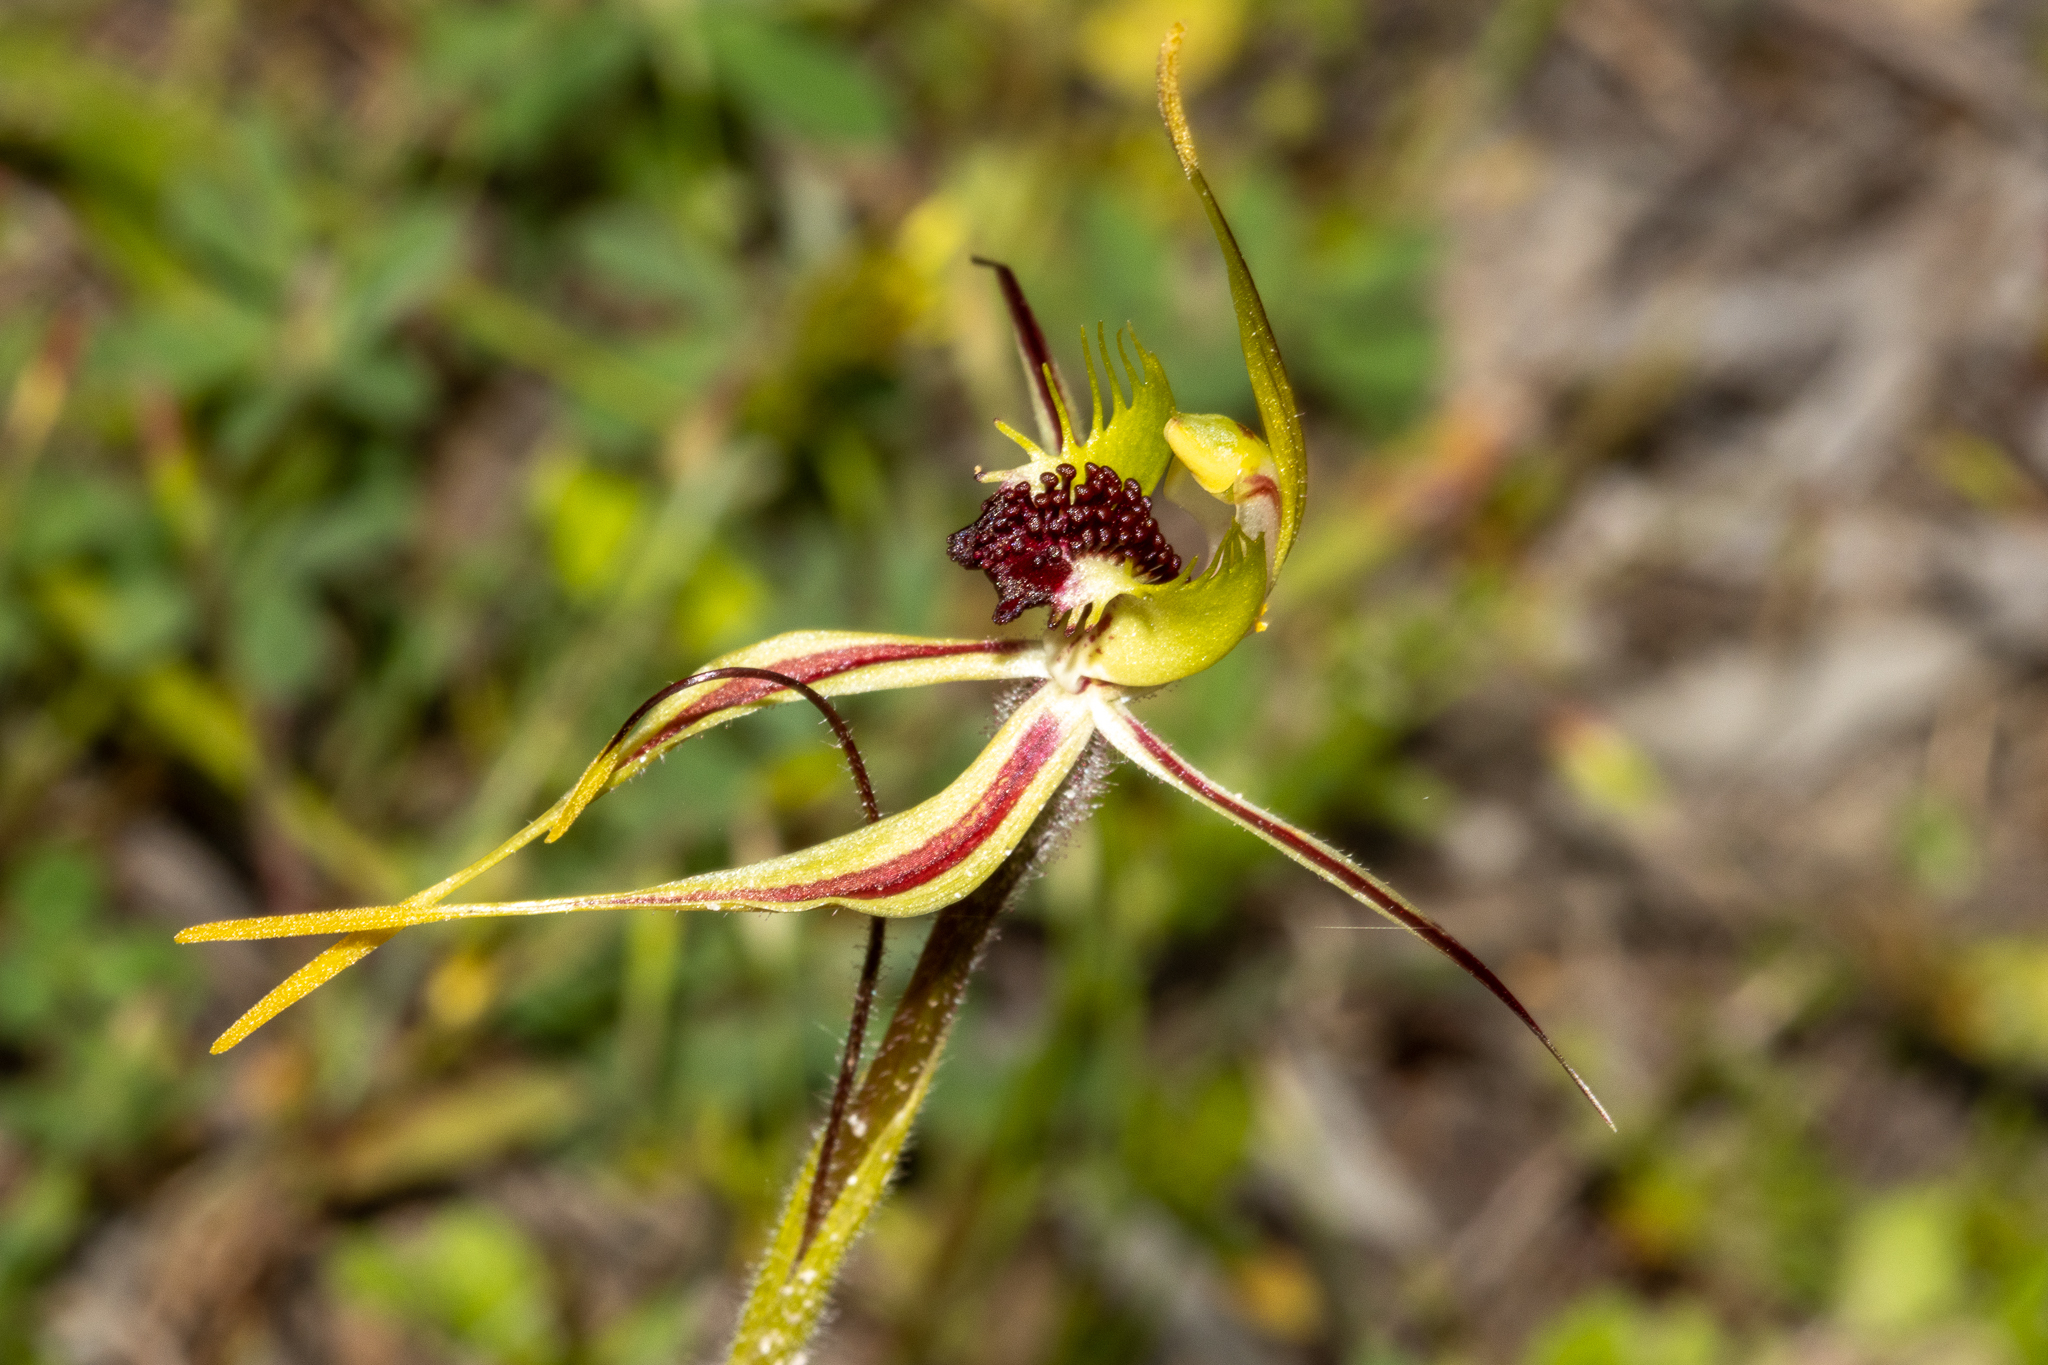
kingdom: Plantae
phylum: Tracheophyta
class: Liliopsida
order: Asparagales
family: Orchidaceae
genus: Caladenia
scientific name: Caladenia verrucosa
